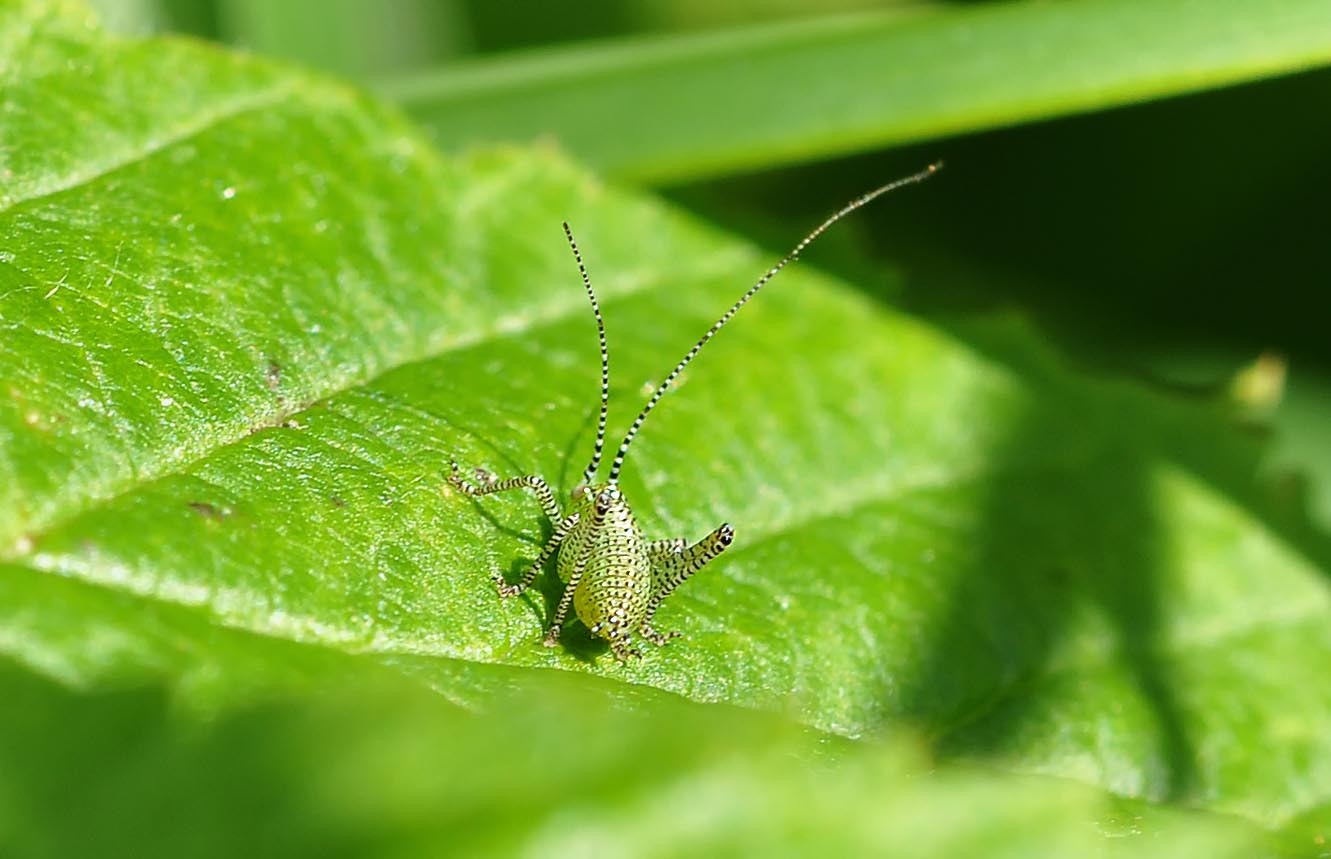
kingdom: Animalia
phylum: Arthropoda
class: Insecta
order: Orthoptera
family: Tettigoniidae
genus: Leptophyes
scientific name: Leptophyes punctatissima
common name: Speckled bush-cricket
